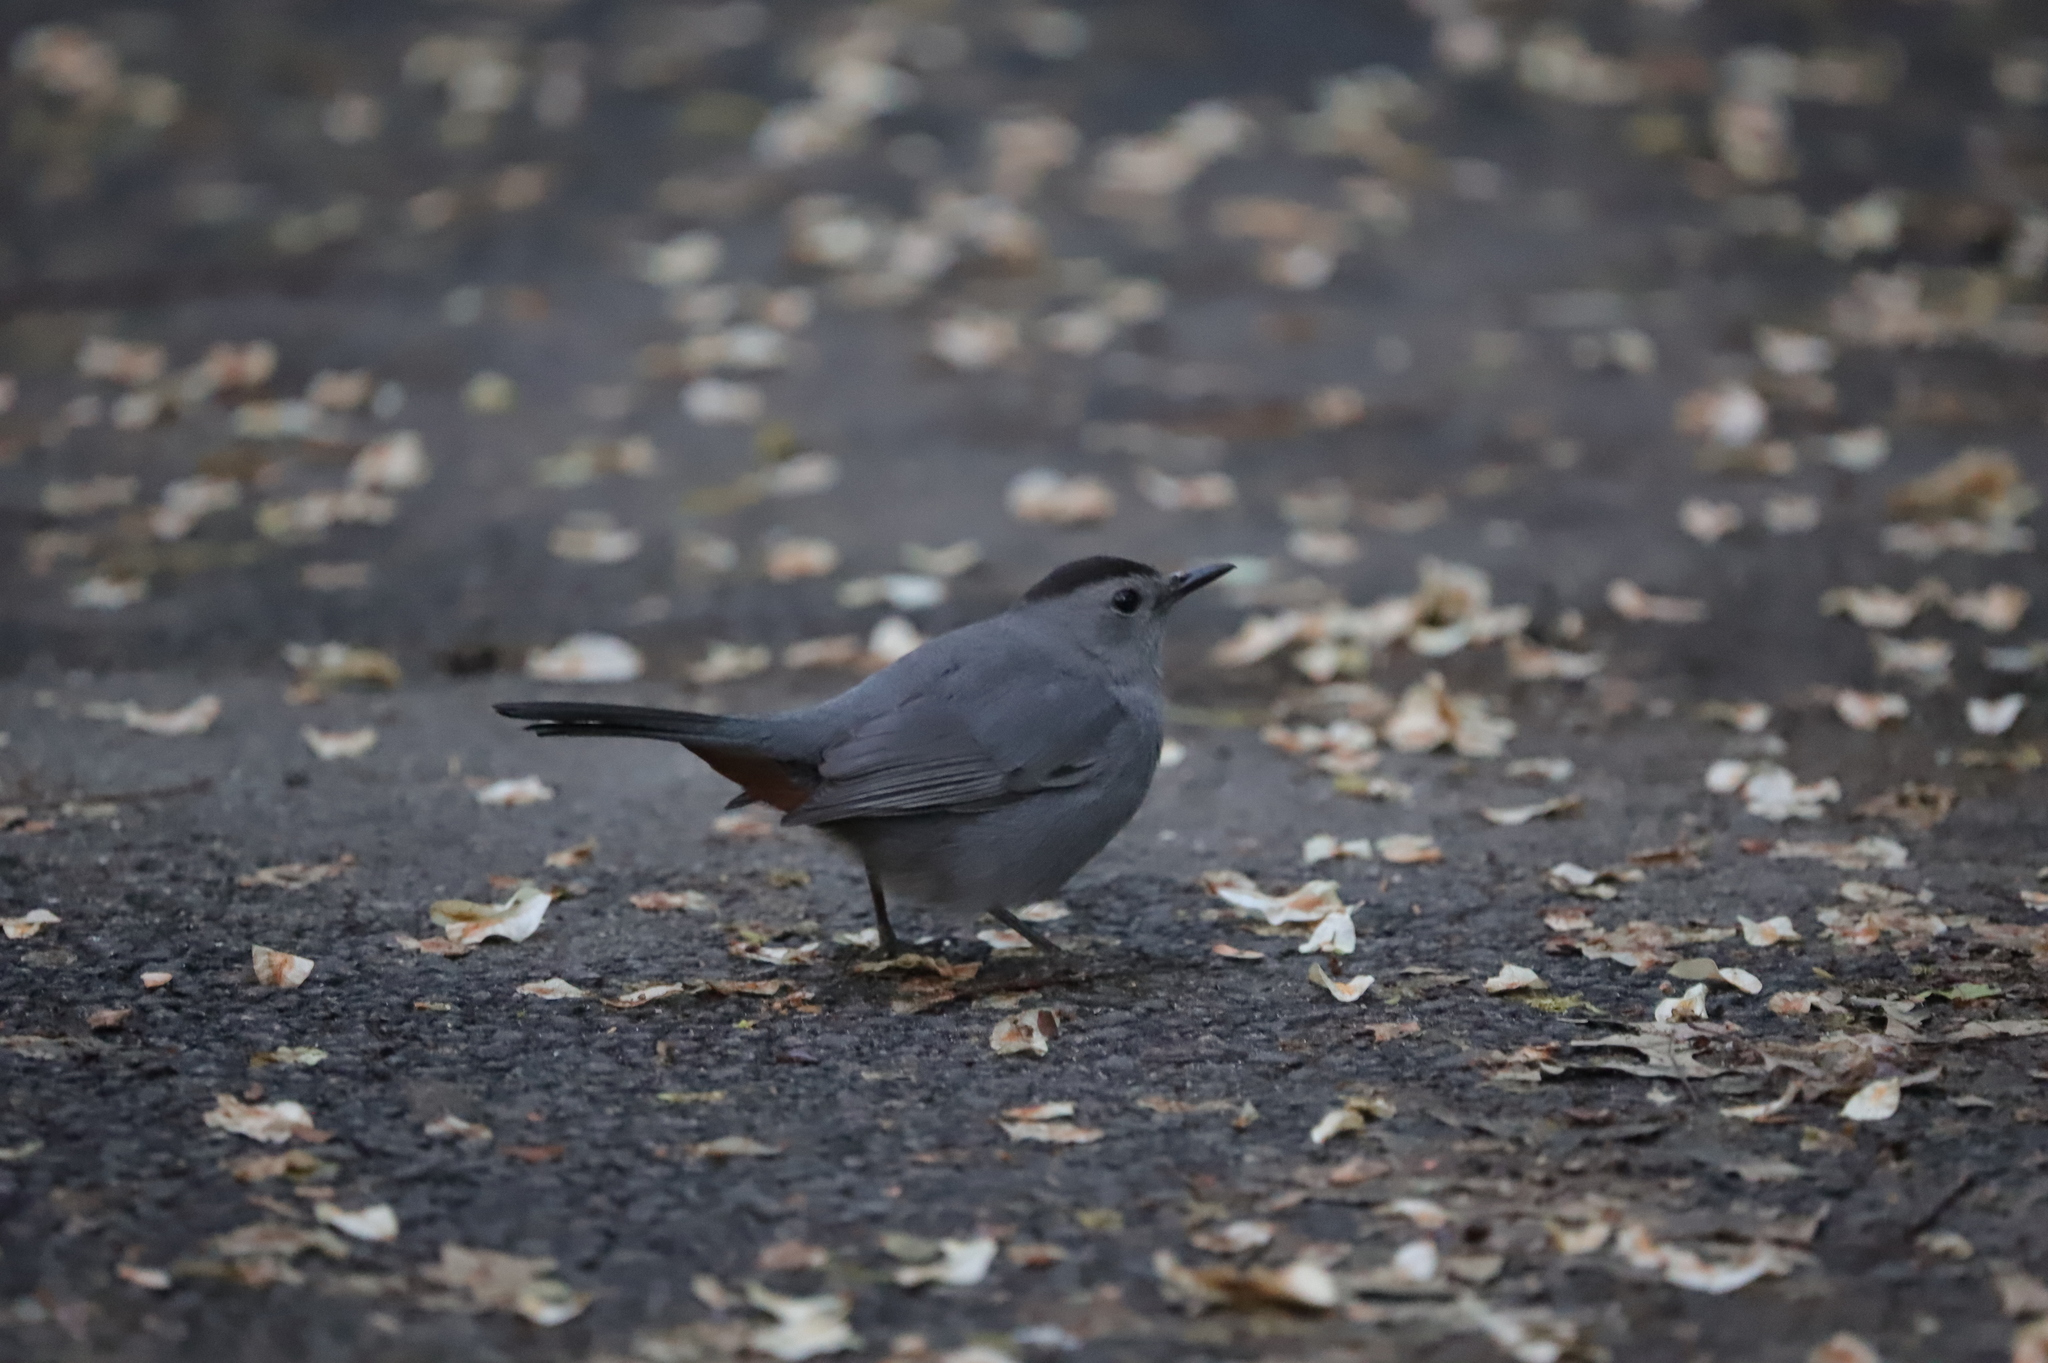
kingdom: Animalia
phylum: Chordata
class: Aves
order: Passeriformes
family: Mimidae
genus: Dumetella
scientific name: Dumetella carolinensis
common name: Gray catbird
